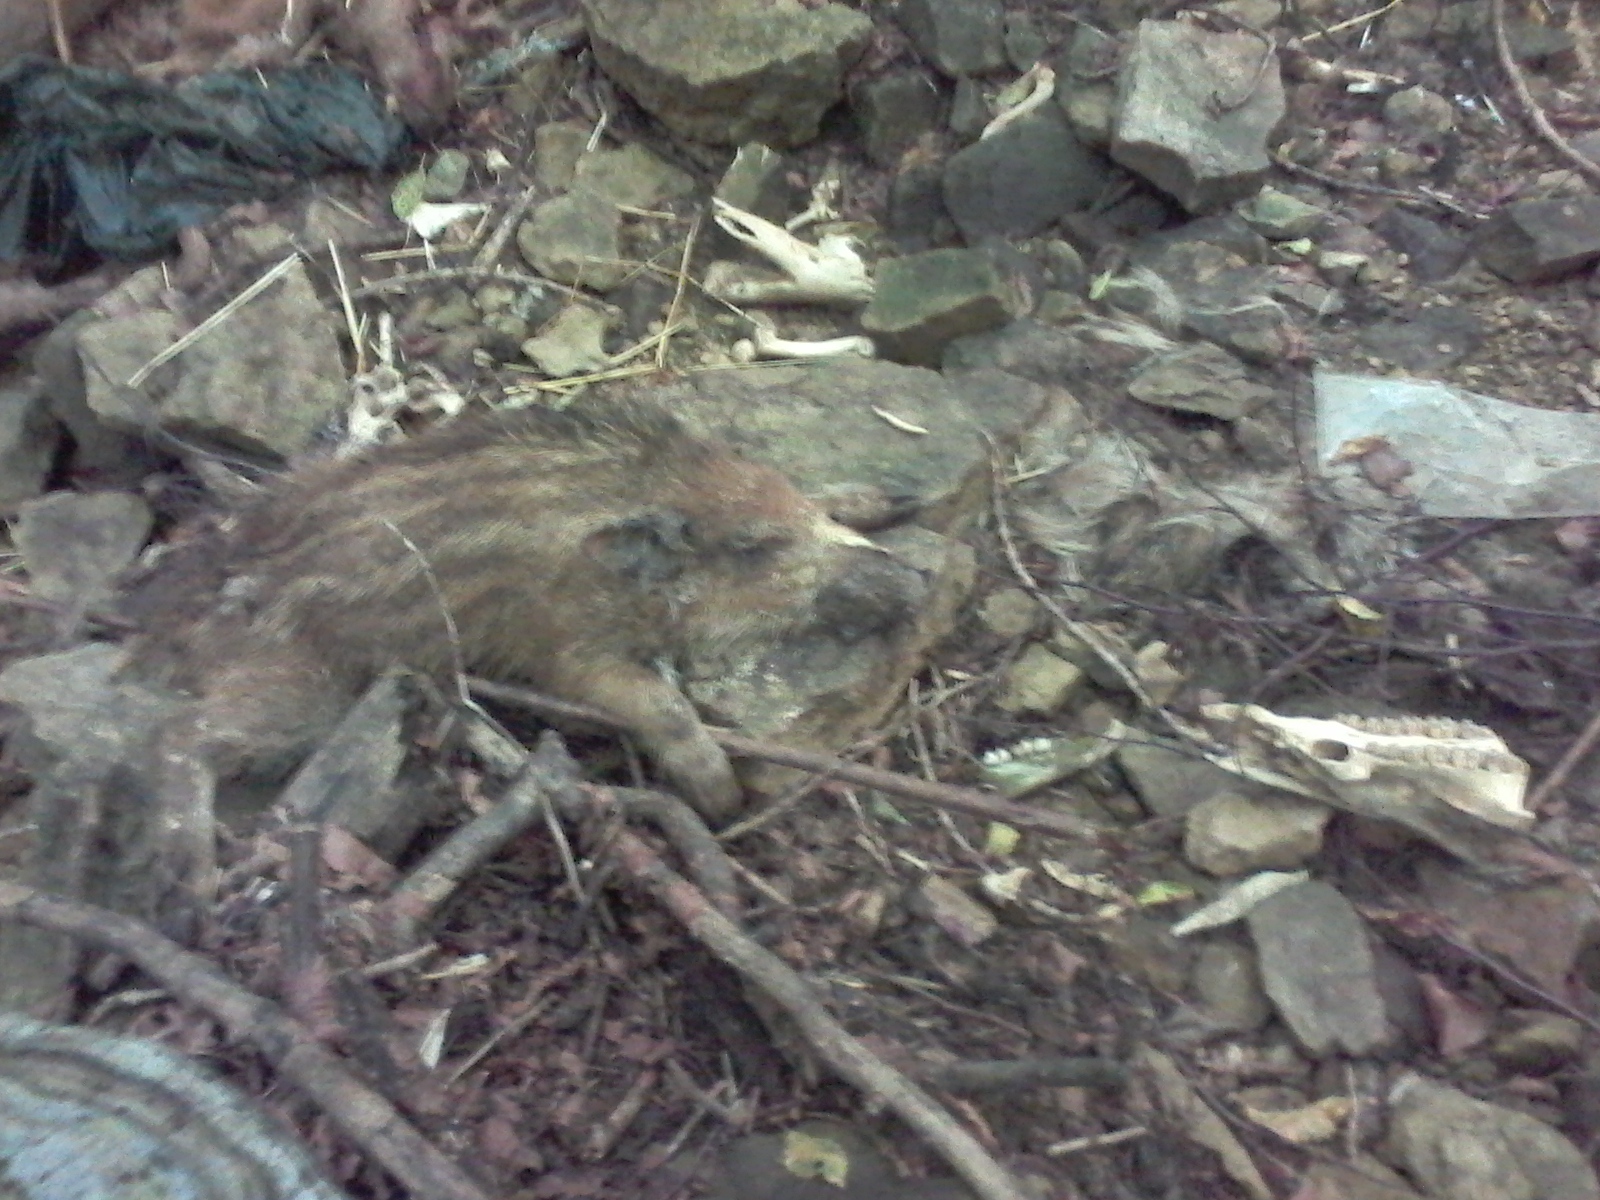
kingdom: Animalia
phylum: Chordata
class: Mammalia
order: Artiodactyla
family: Suidae
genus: Sus
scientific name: Sus scrofa
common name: Wild boar
